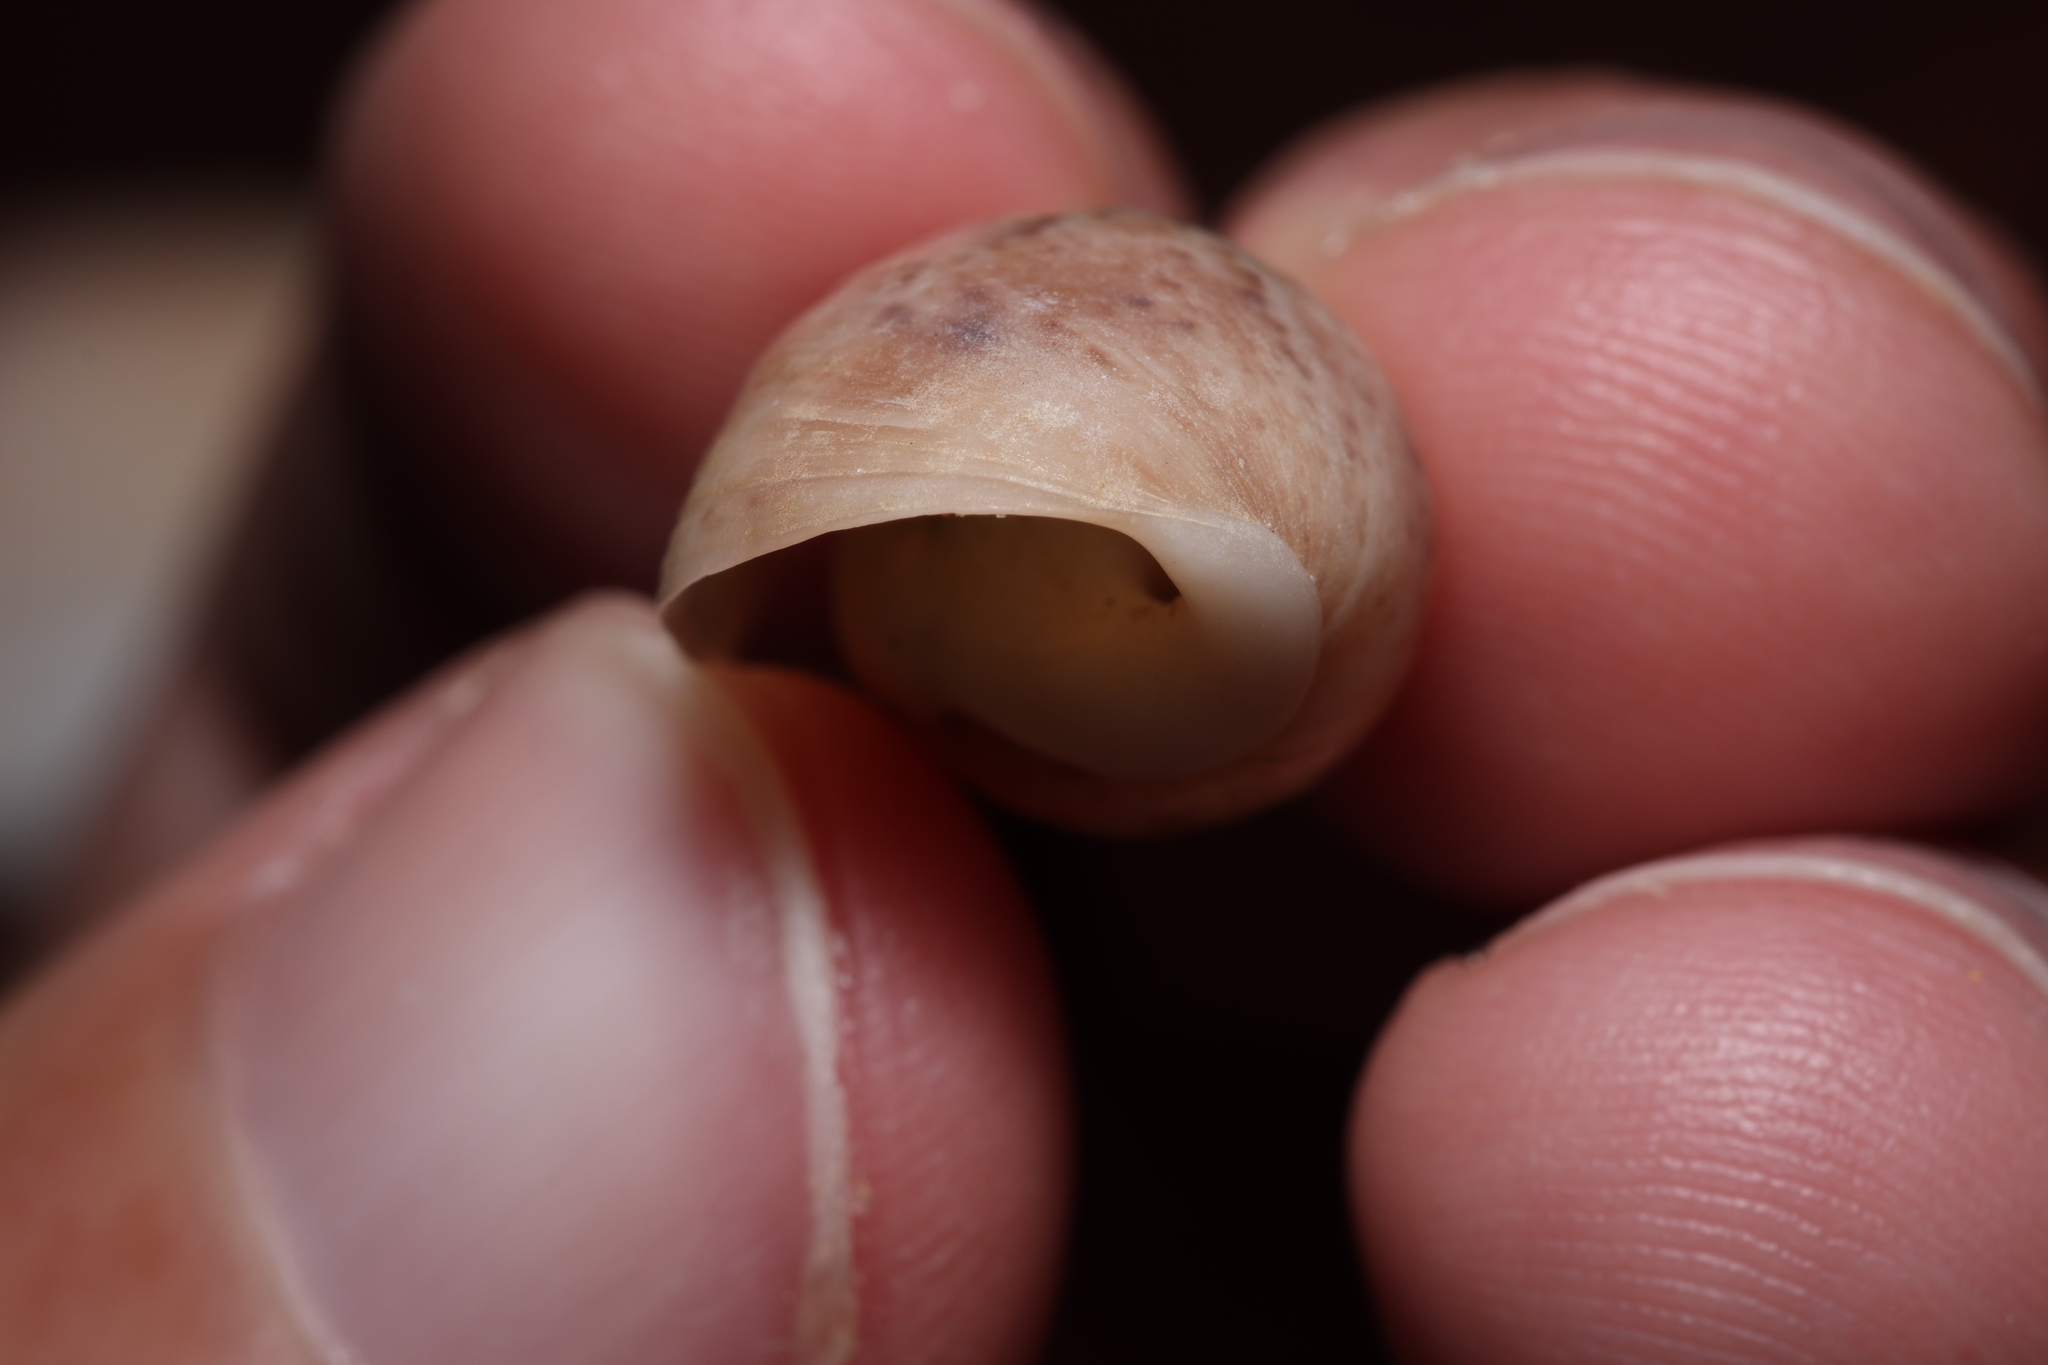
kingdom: Animalia
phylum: Mollusca
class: Gastropoda
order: Cephalaspidea
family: Bullidae
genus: Bulla
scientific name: Bulla occidentalis
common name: Common west-indian bubble
